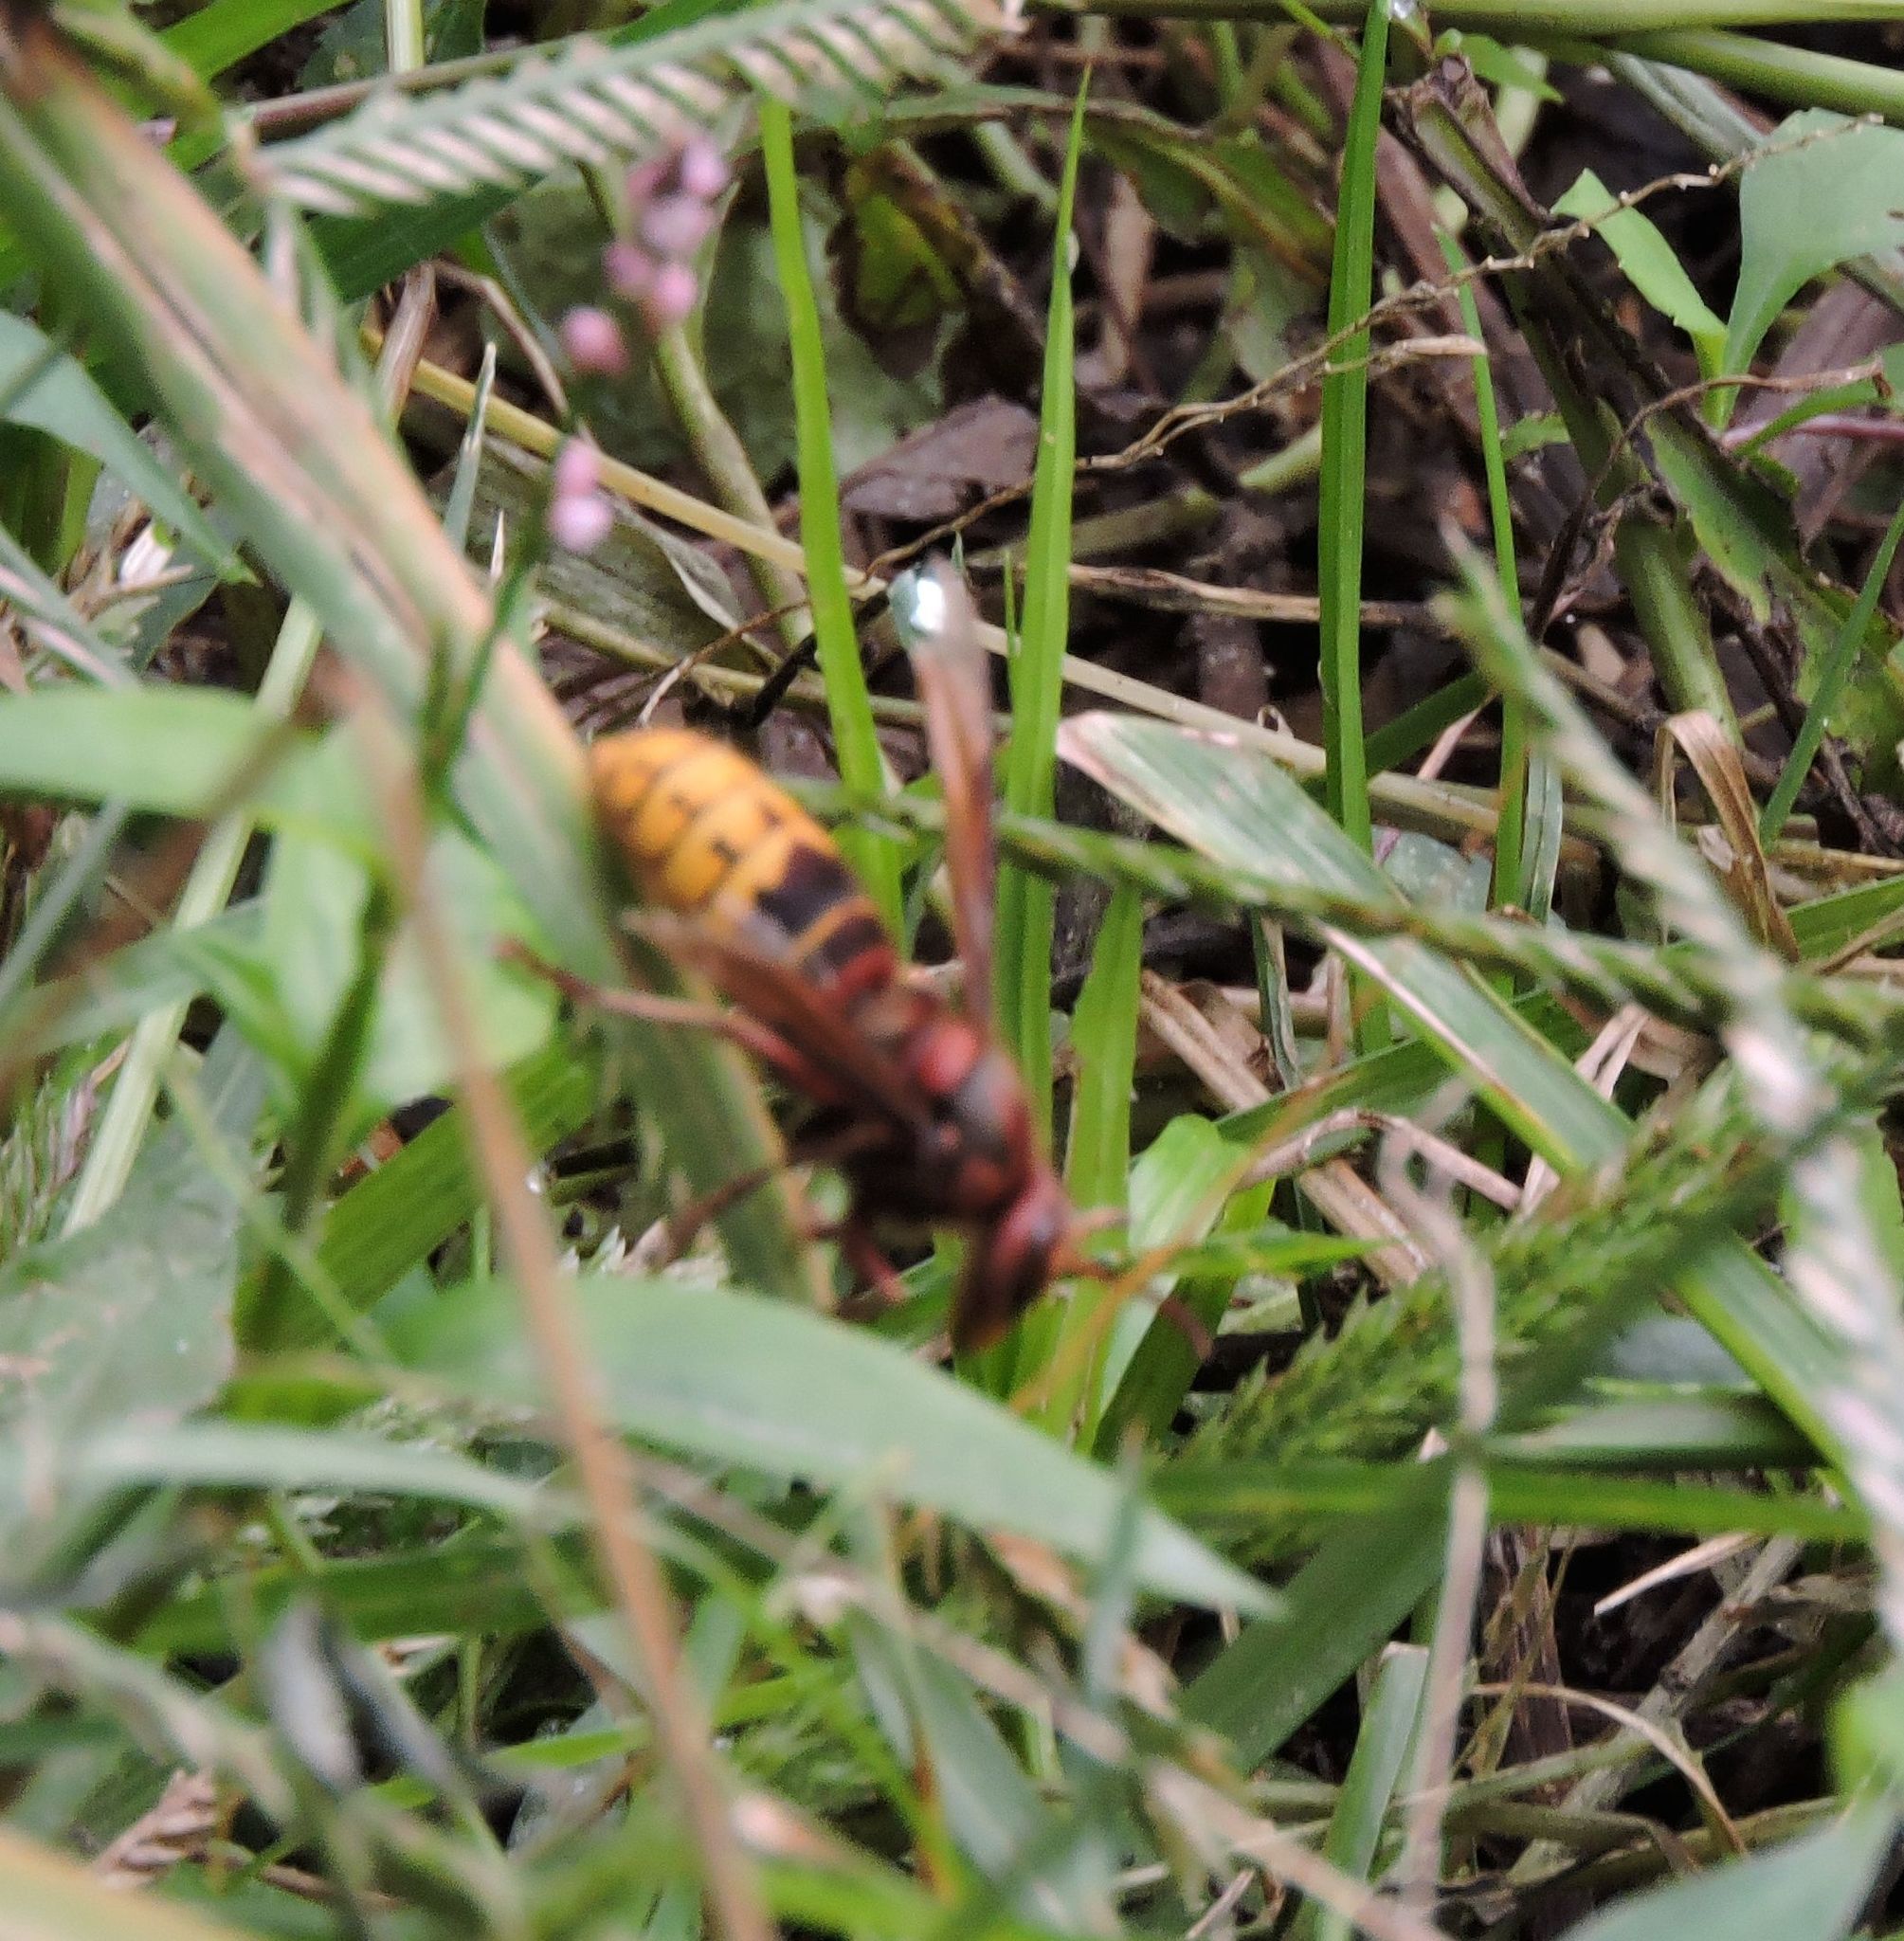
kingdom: Animalia
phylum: Arthropoda
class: Insecta
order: Hymenoptera
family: Vespidae
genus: Vespa
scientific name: Vespa crabro
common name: Hornet
